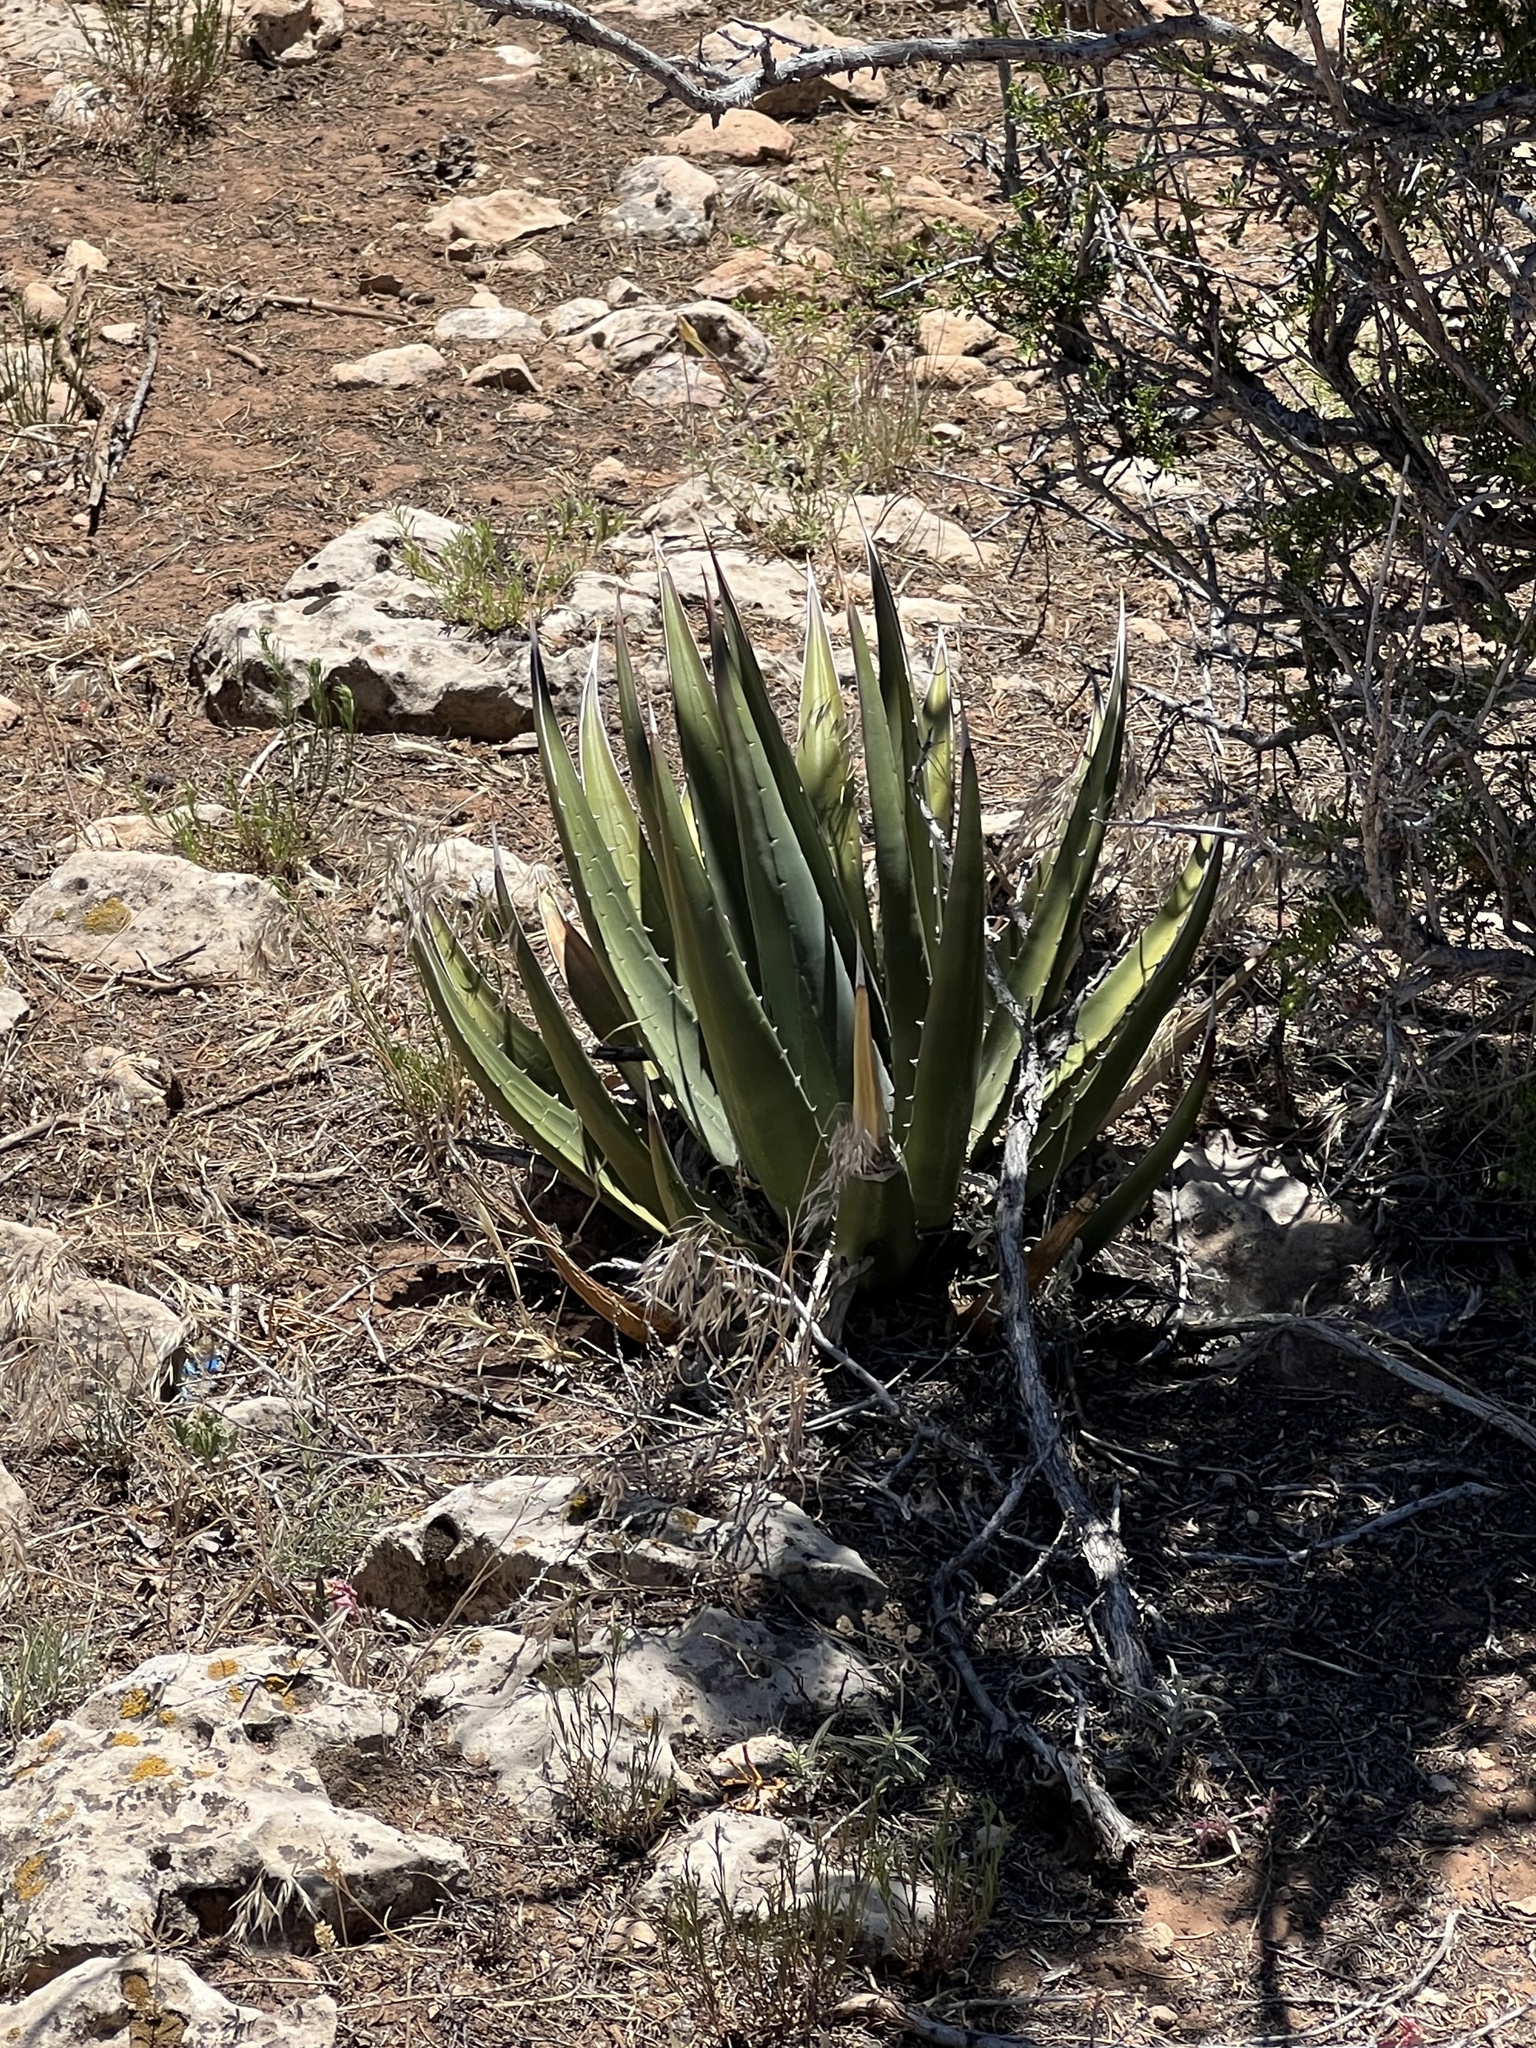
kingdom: Plantae
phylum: Tracheophyta
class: Liliopsida
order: Asparagales
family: Asparagaceae
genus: Agave
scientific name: Agave utahensis
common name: Utah agave
